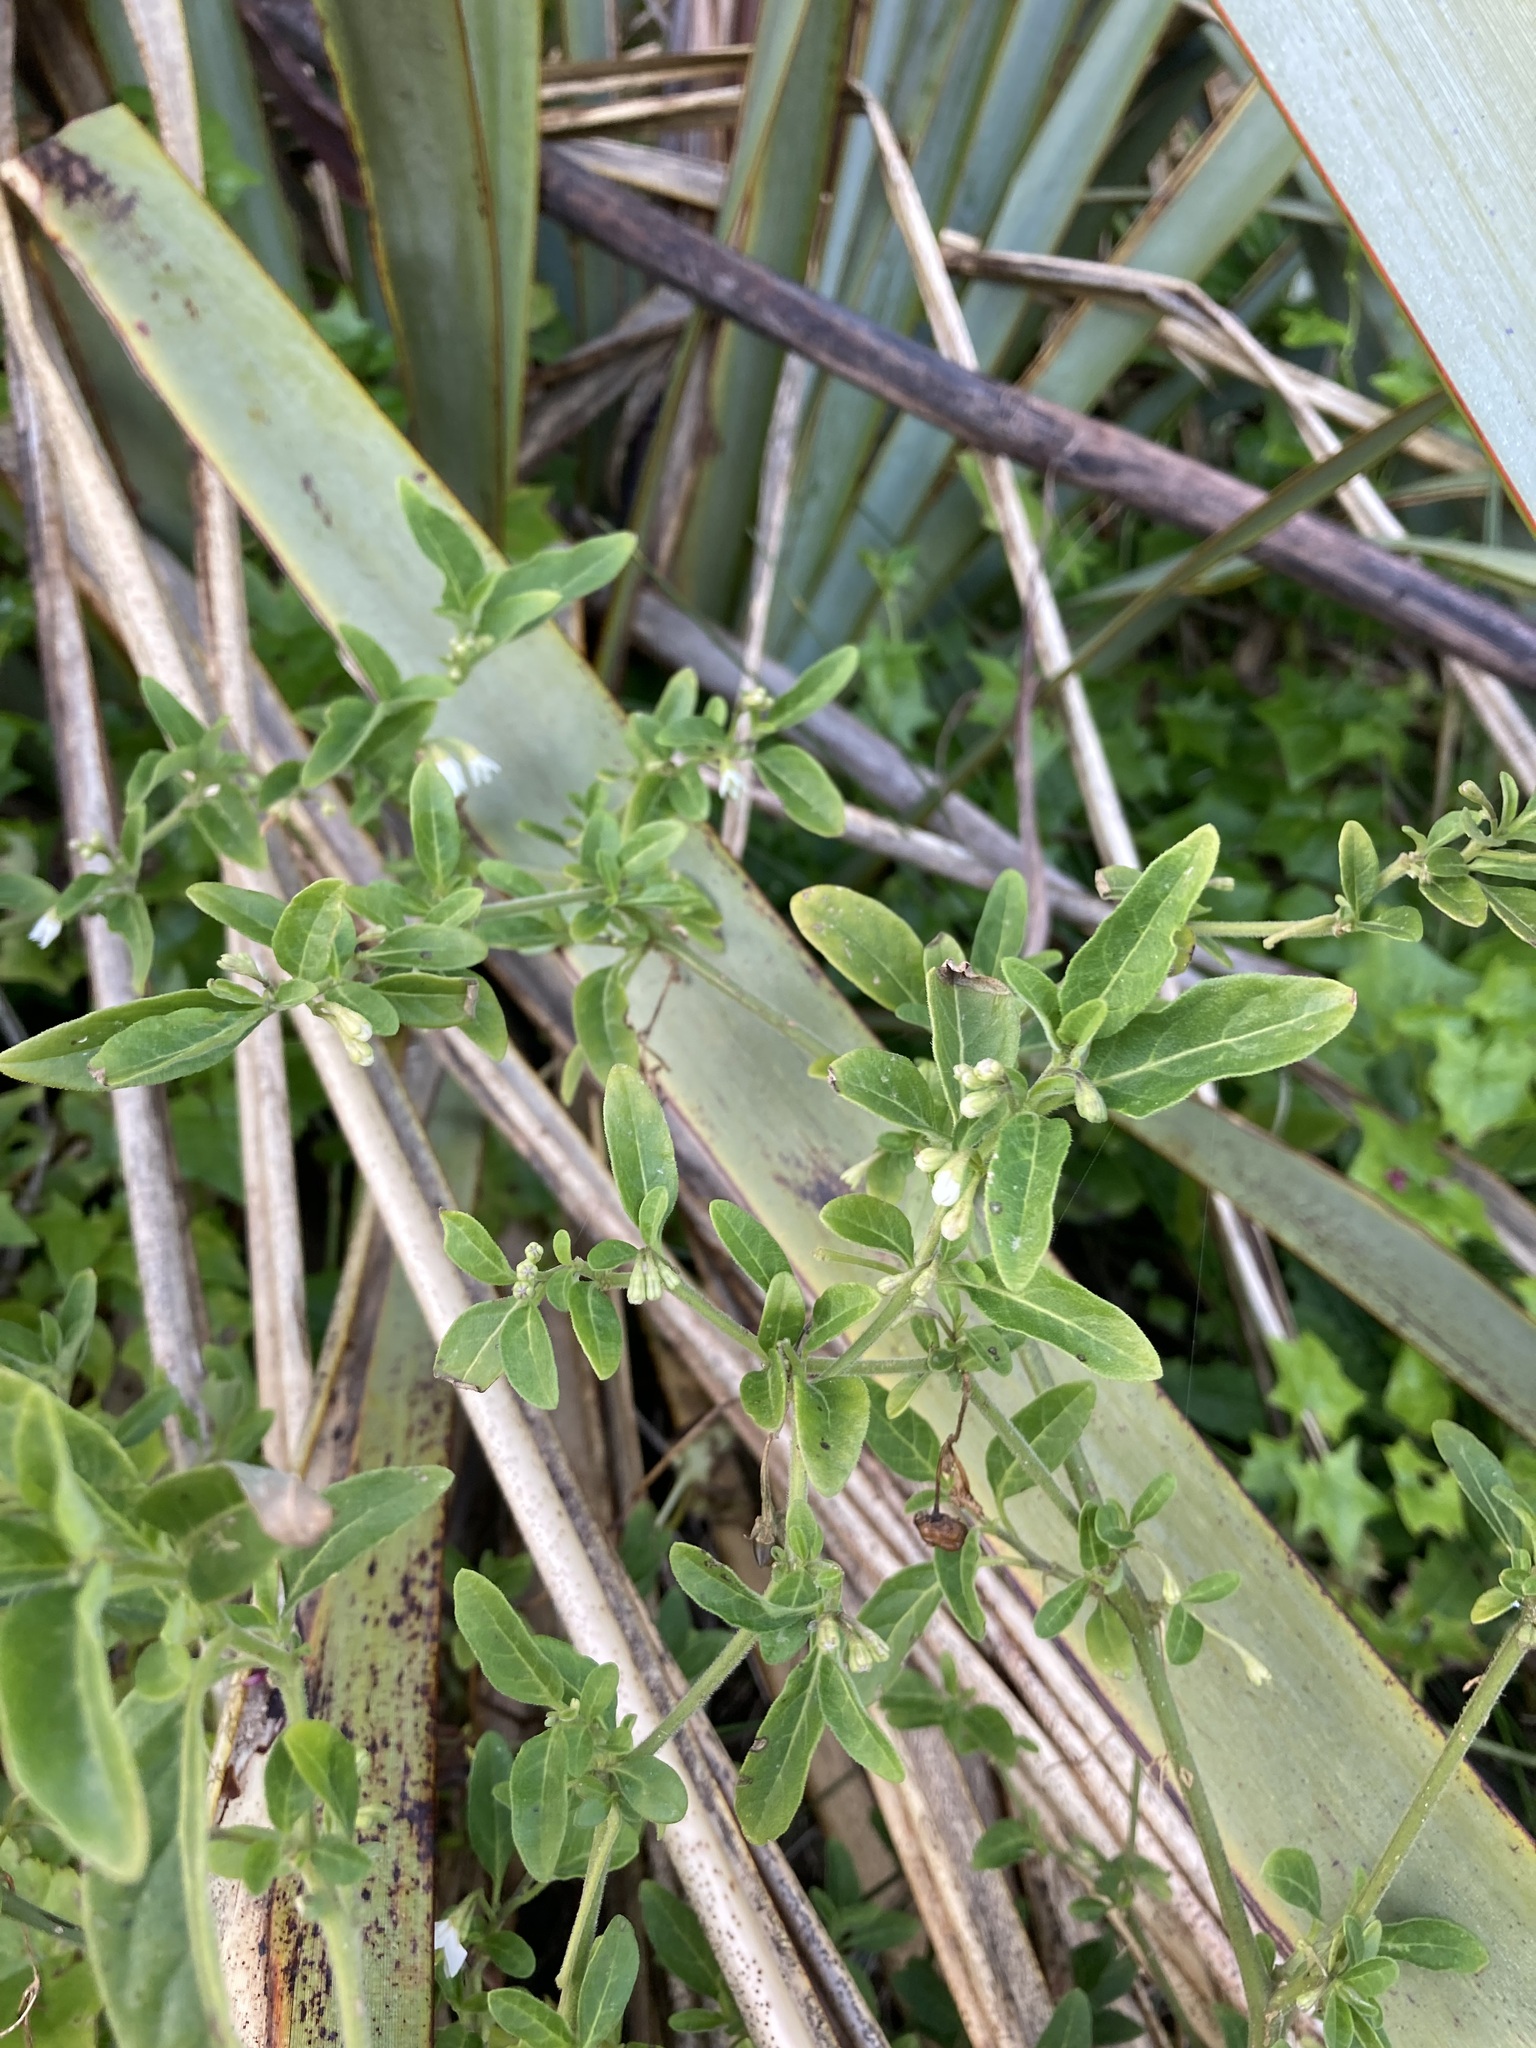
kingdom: Plantae
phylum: Tracheophyta
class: Magnoliopsida
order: Solanales
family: Solanaceae
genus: Solanum
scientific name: Solanum chenopodioides
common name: Tall nightshade
